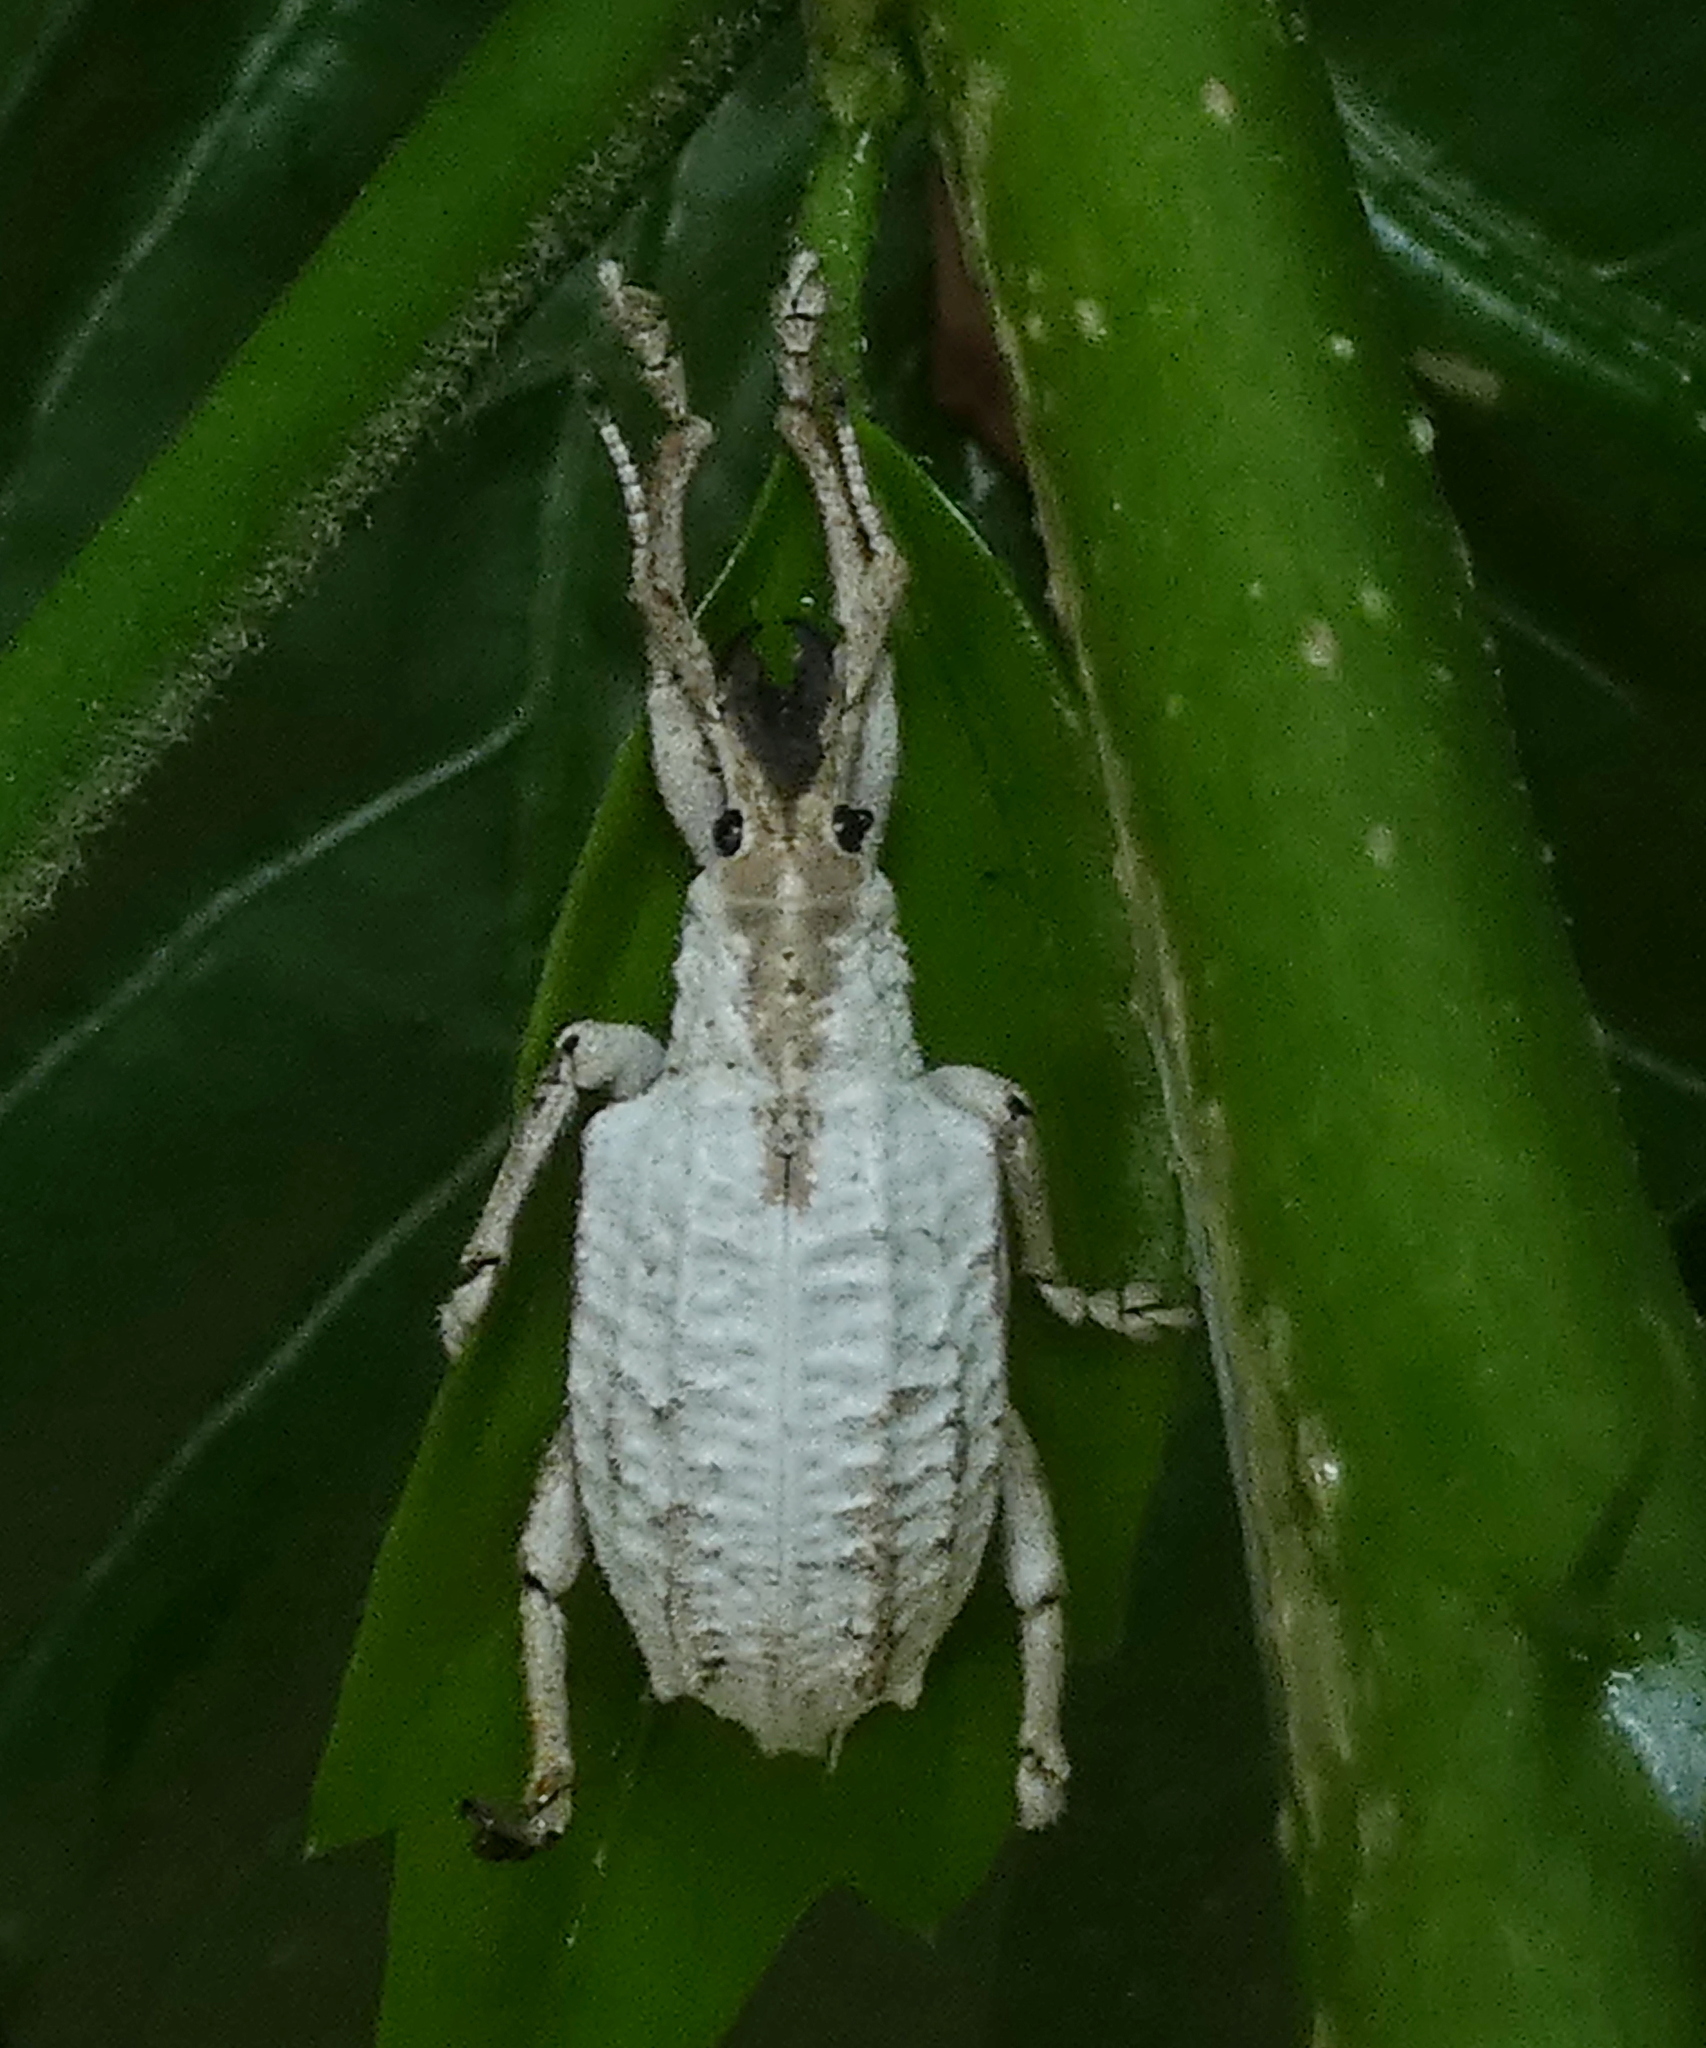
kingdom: Animalia
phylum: Arthropoda
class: Insecta
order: Coleoptera
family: Curculionidae
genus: Compsus
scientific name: Compsus niveus
